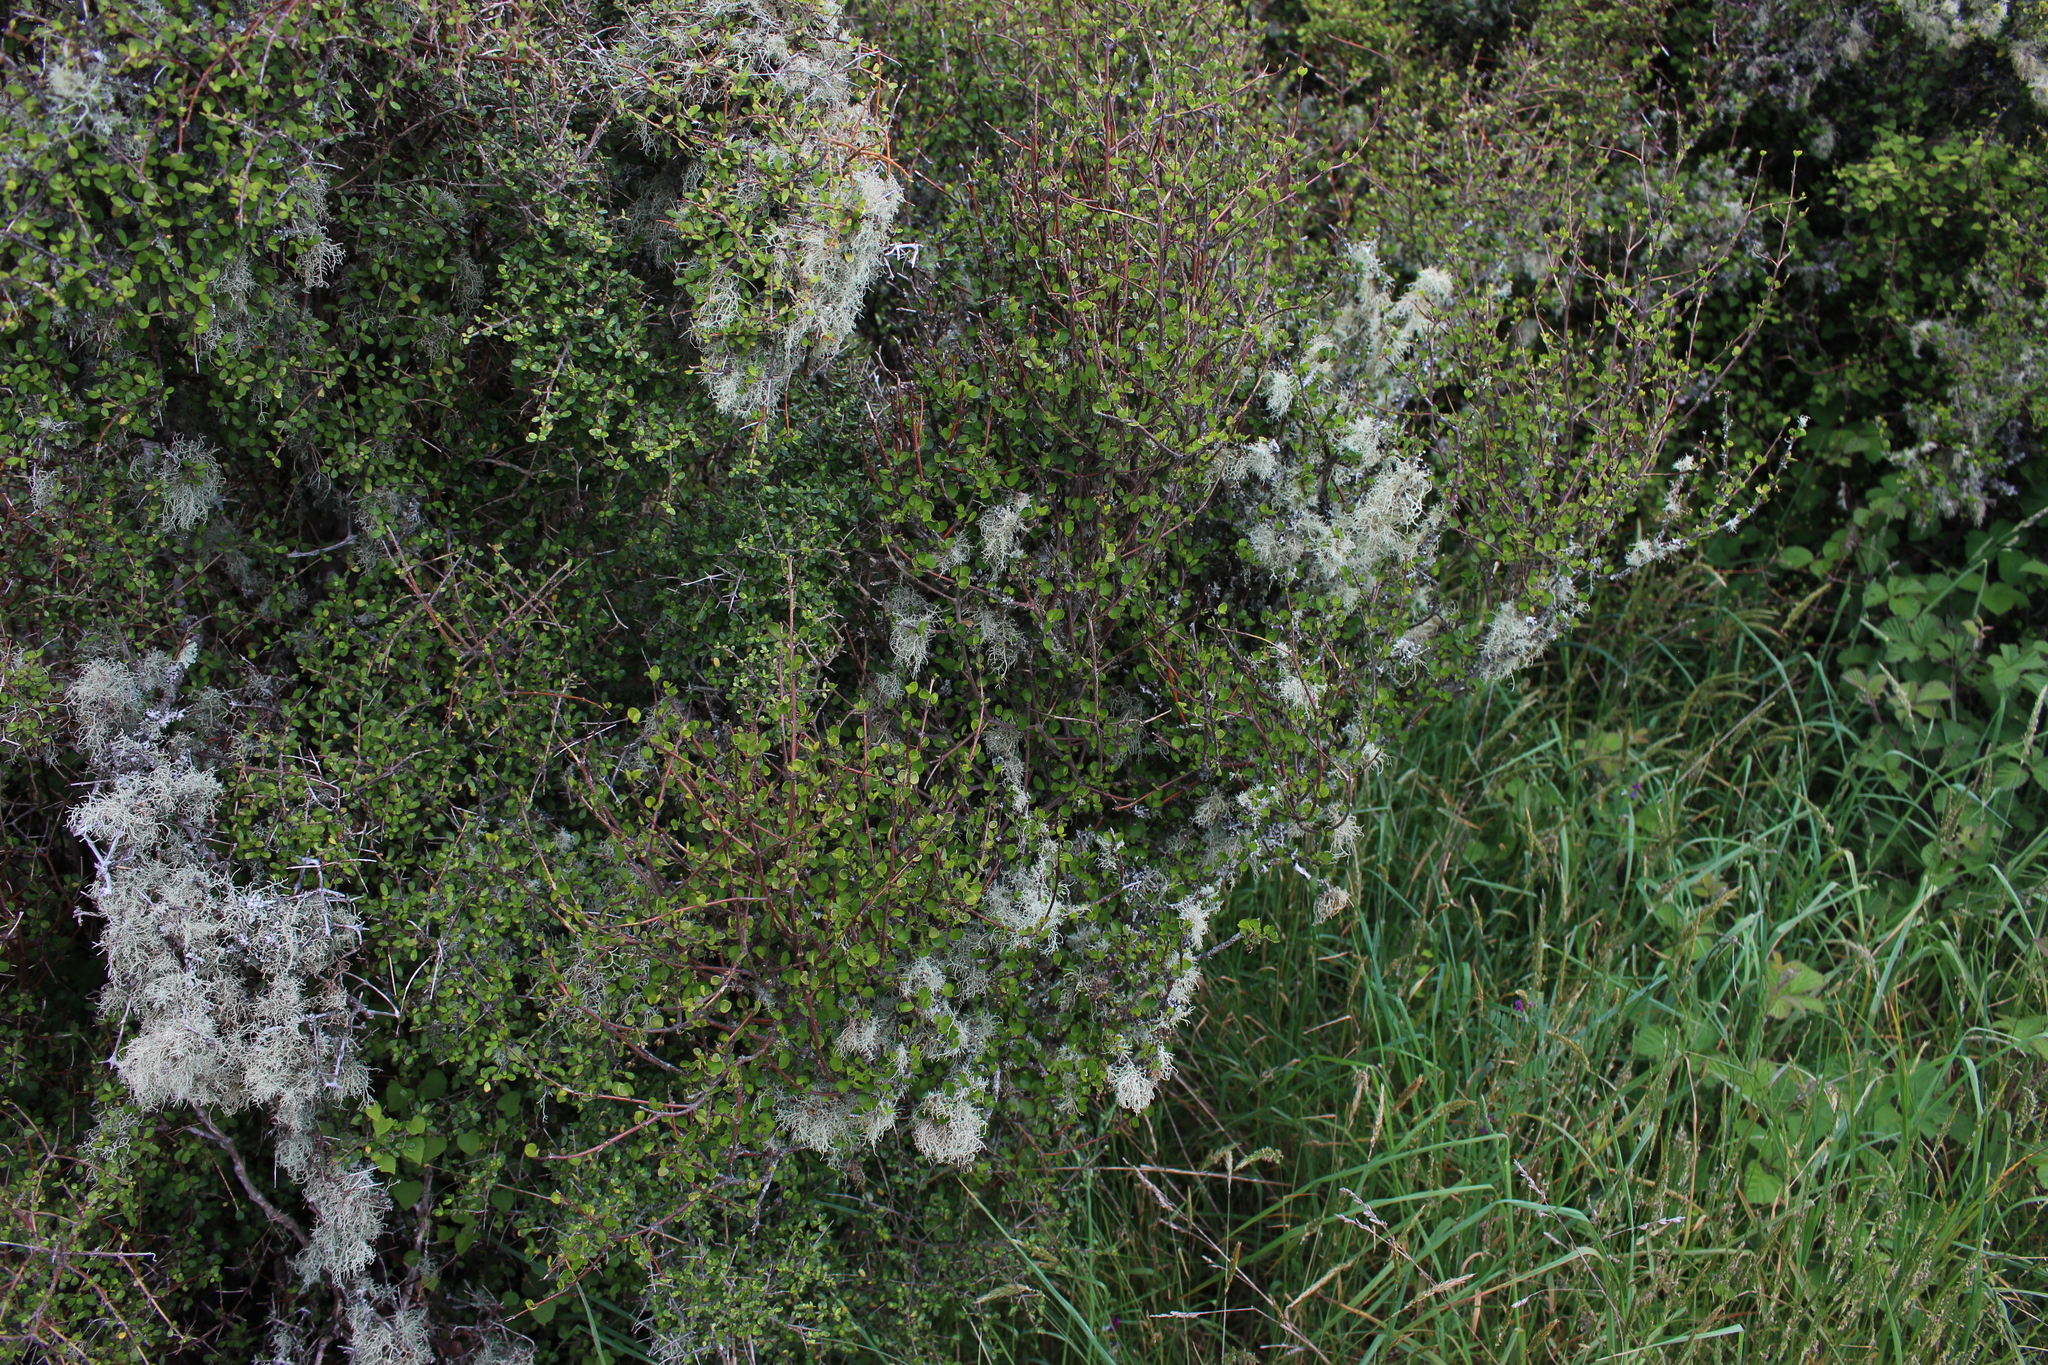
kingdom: Plantae
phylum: Tracheophyta
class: Magnoliopsida
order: Sapindales
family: Rutaceae
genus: Melicope
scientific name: Melicope simplex
